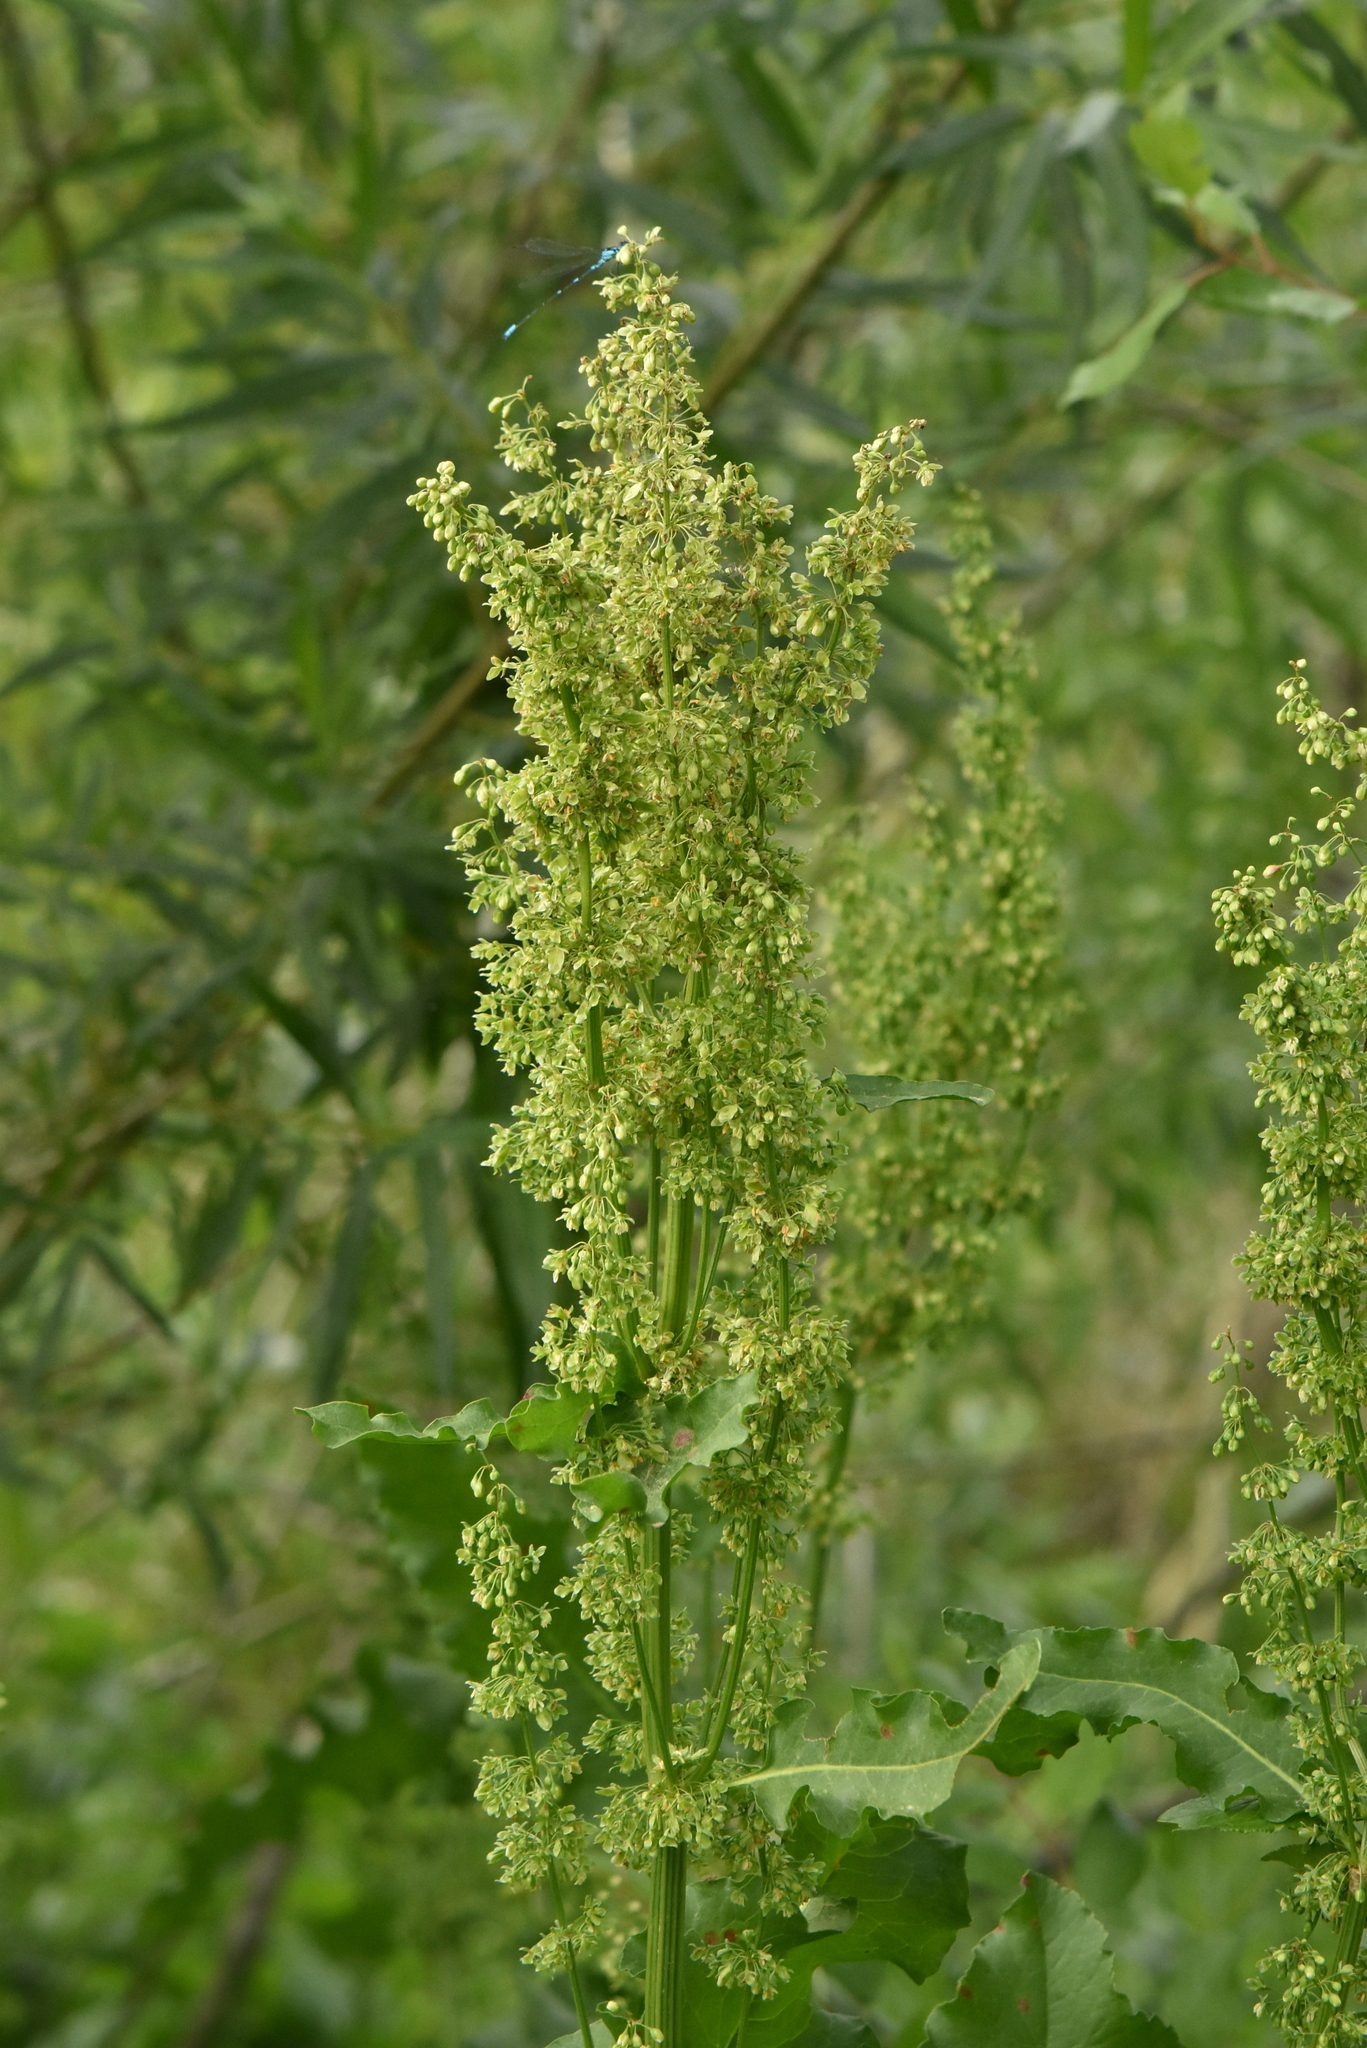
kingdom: Plantae
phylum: Tracheophyta
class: Magnoliopsida
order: Caryophyllales
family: Polygonaceae
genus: Rumex
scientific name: Rumex confertus
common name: Russian dock
